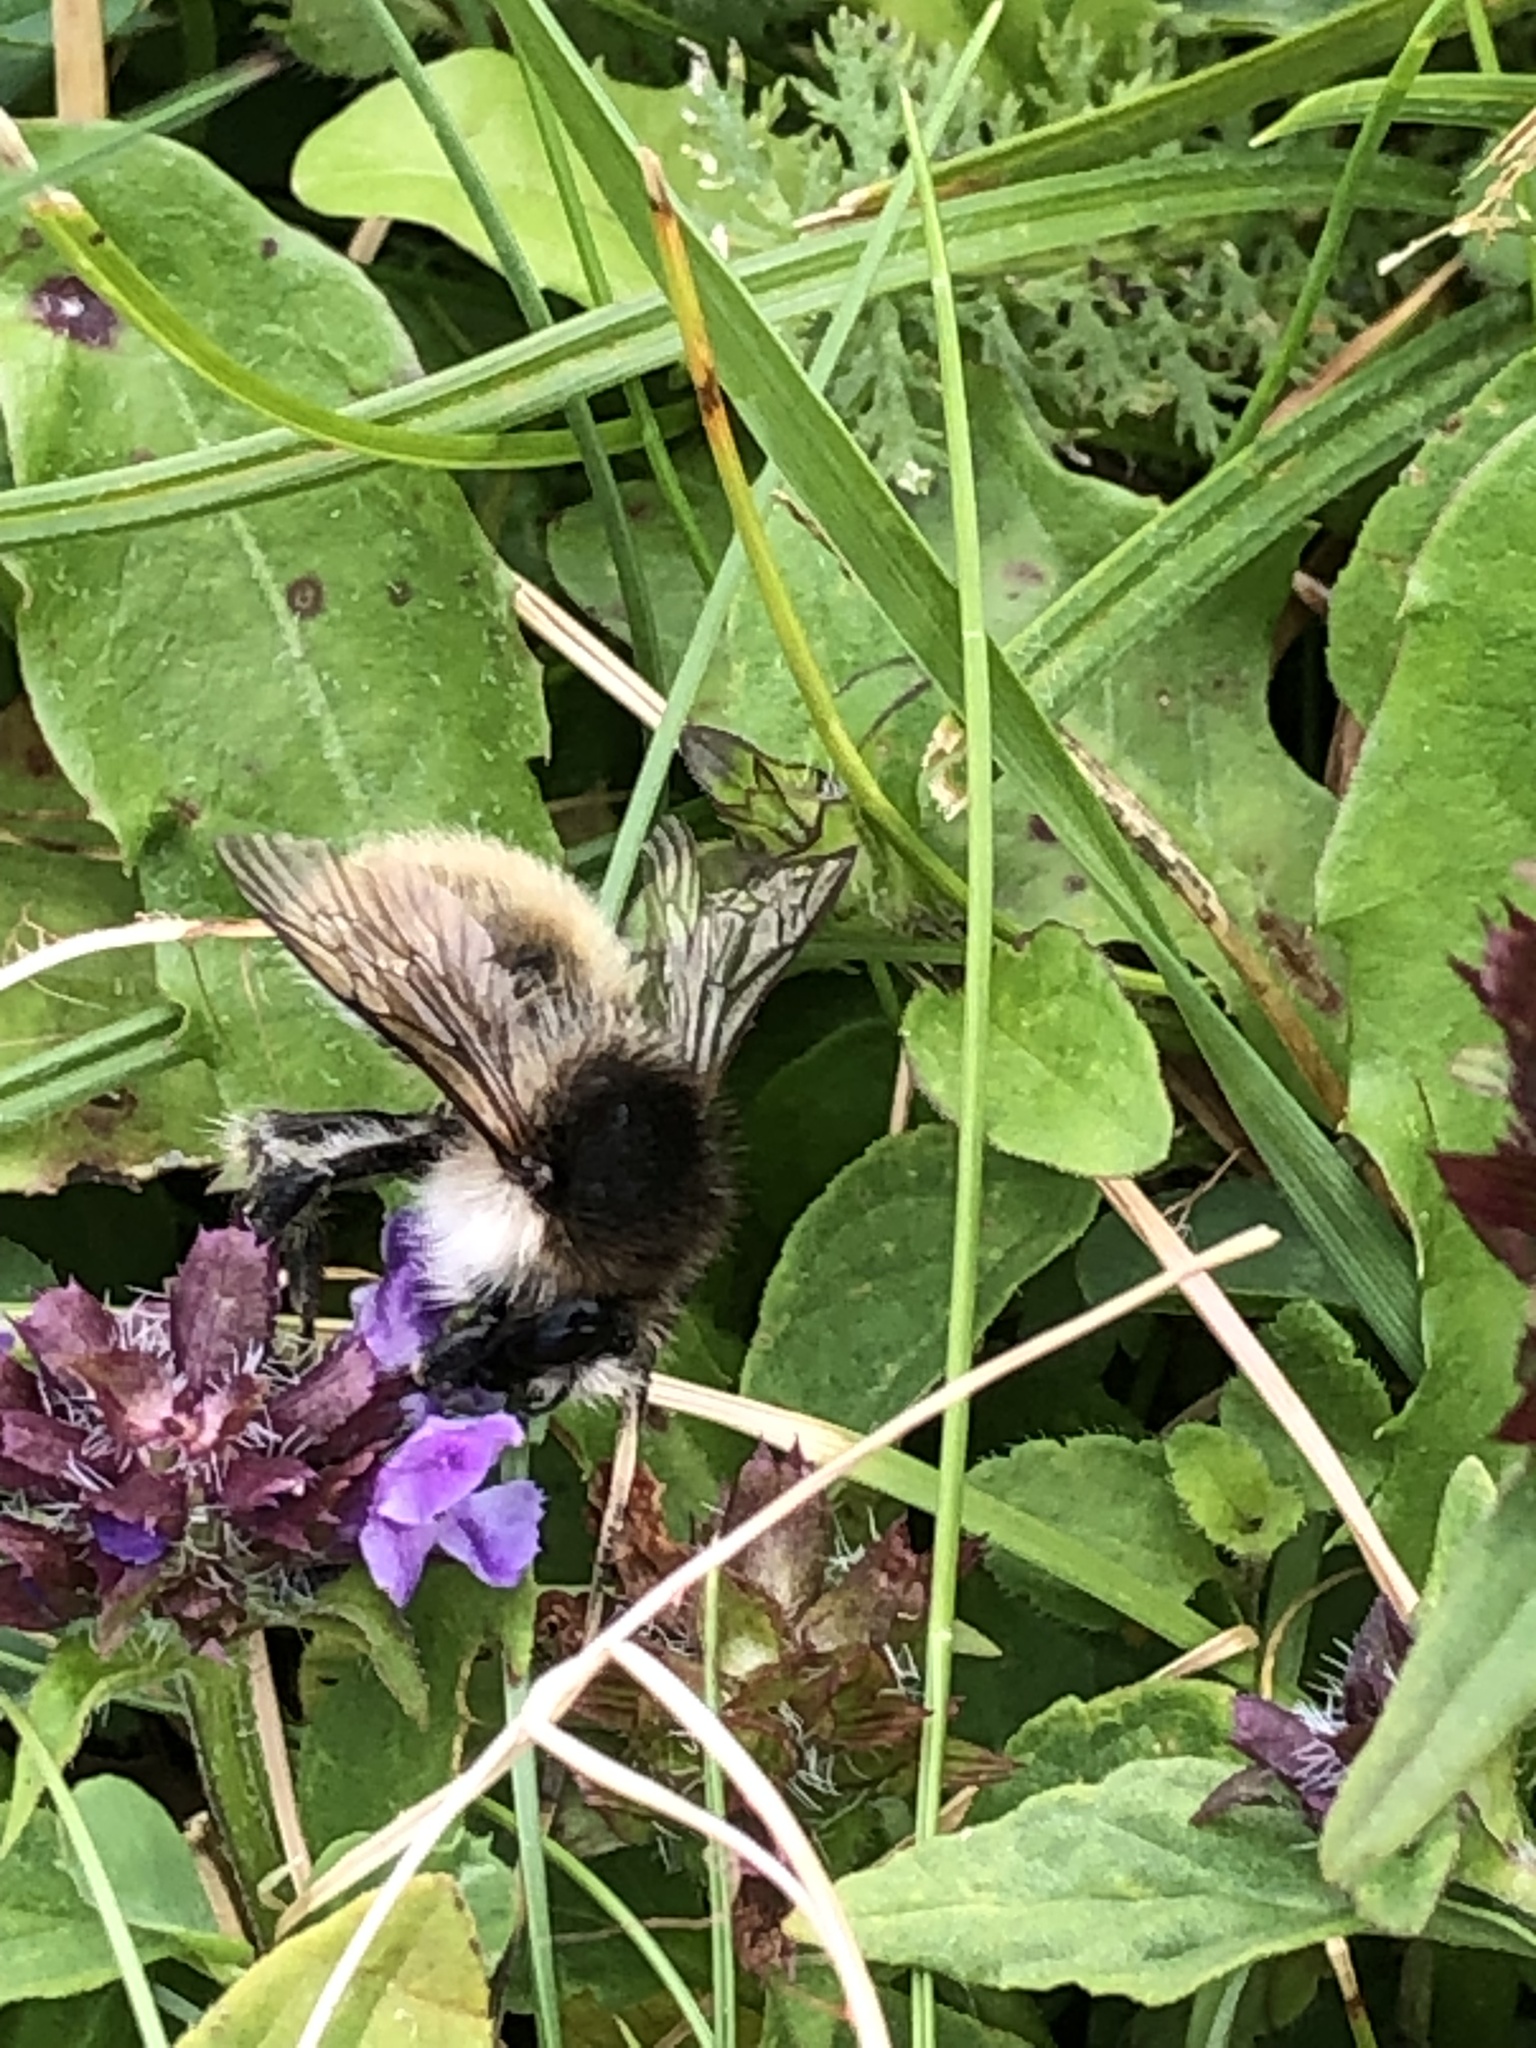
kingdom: Animalia
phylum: Arthropoda
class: Insecta
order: Hymenoptera
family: Apidae
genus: Bombus
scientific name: Bombus humilis
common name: Brown-banded carder-bee
